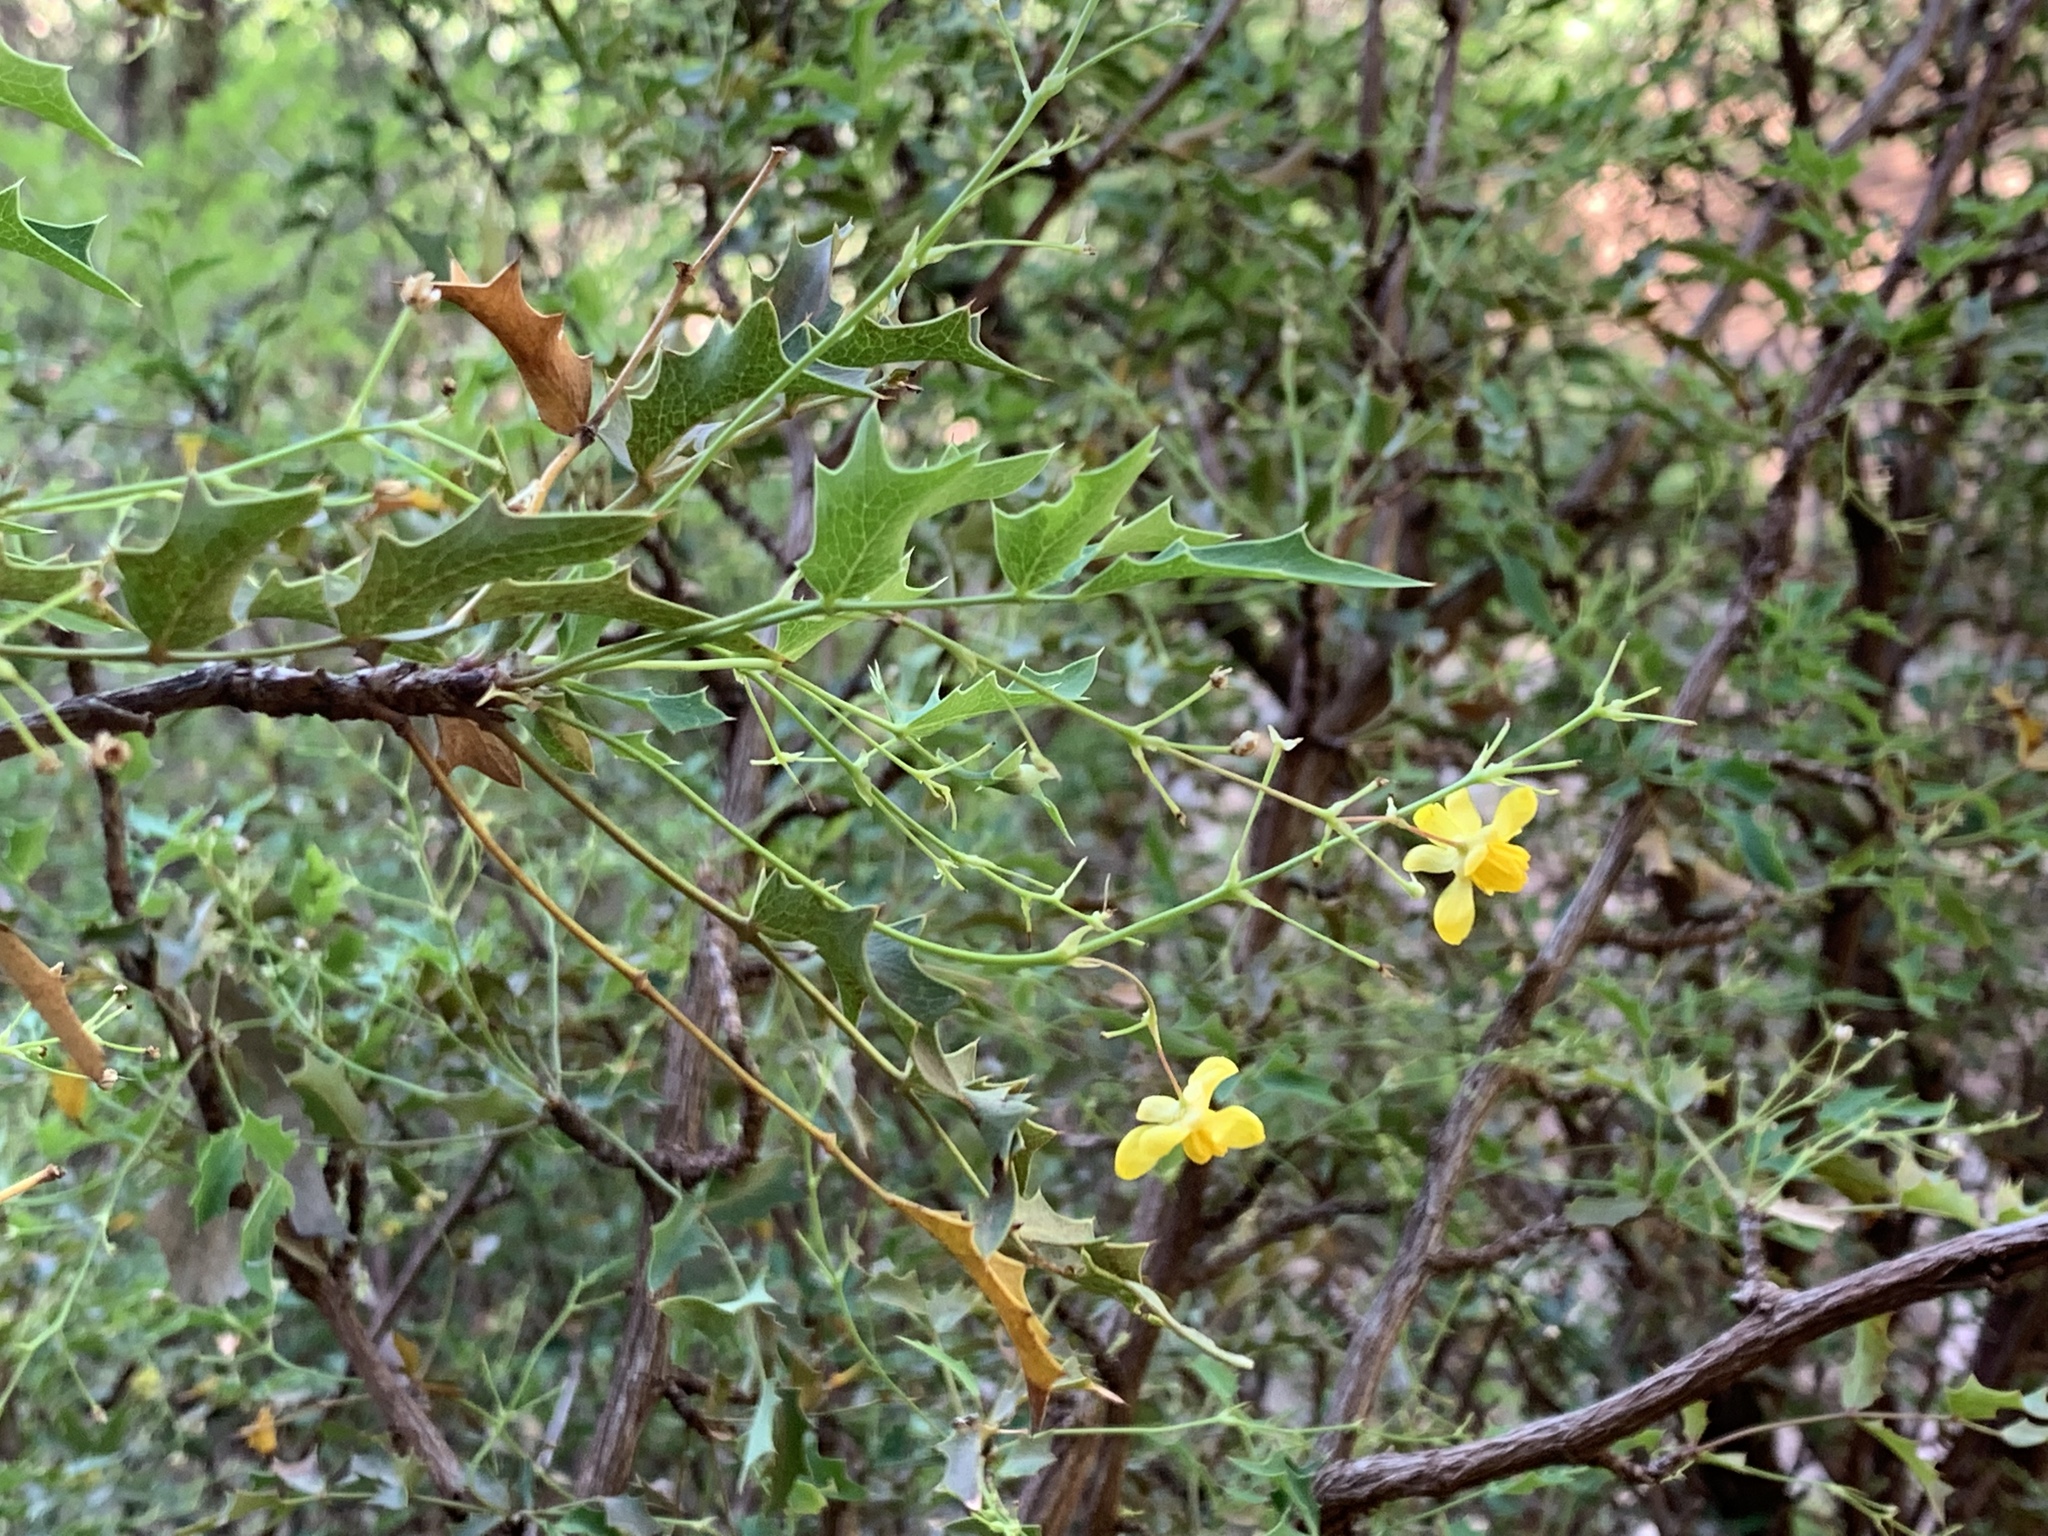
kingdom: Plantae
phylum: Tracheophyta
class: Magnoliopsida
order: Ranunculales
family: Berberidaceae
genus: Alloberberis
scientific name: Alloberberis haematocarpa
